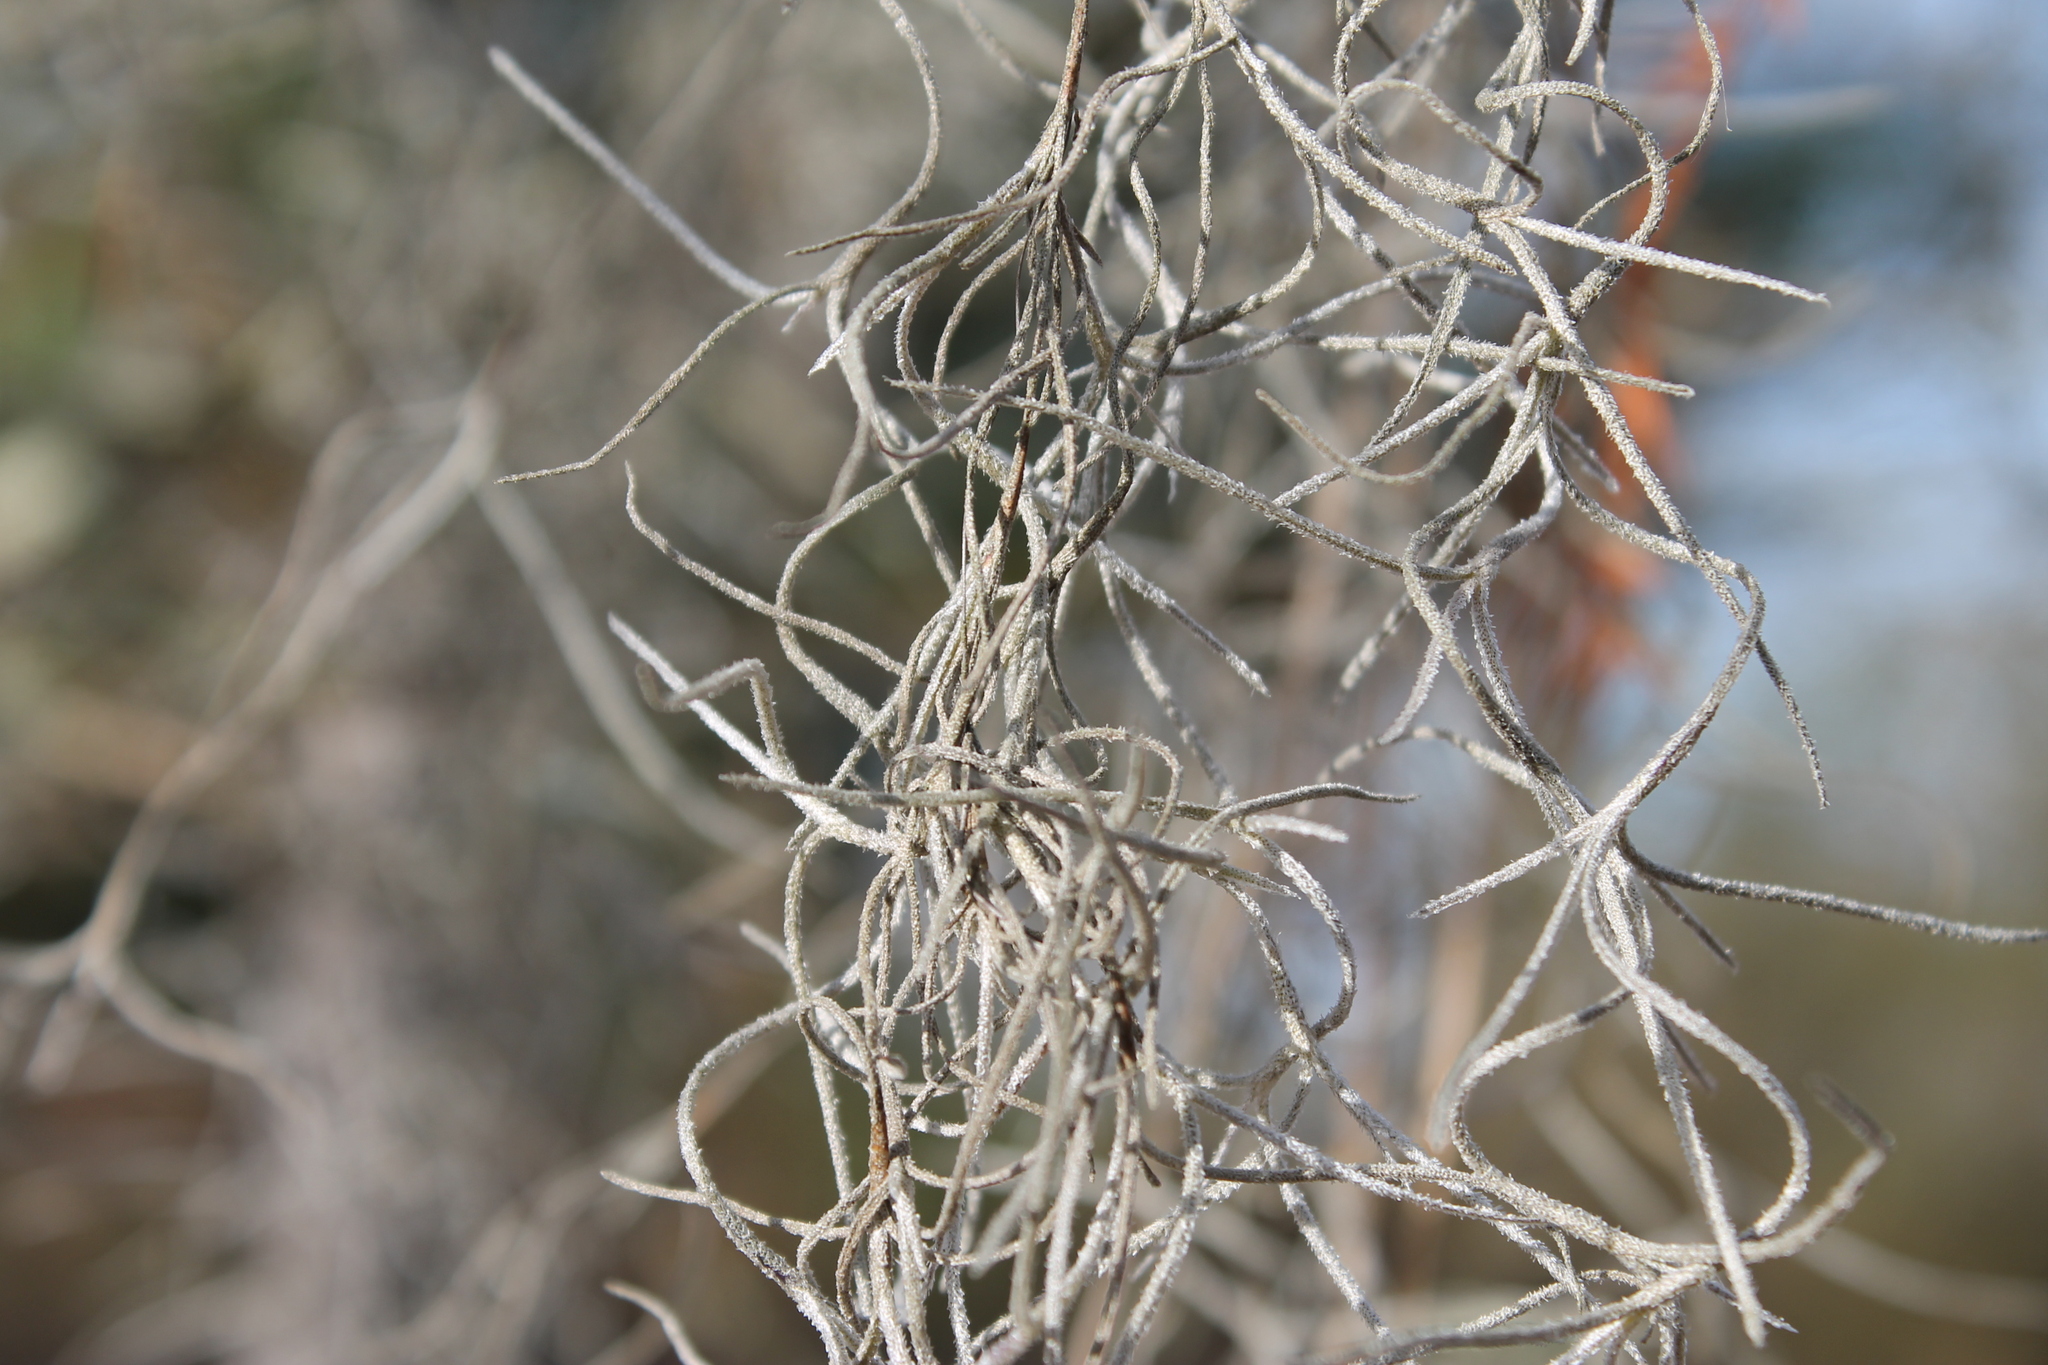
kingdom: Plantae
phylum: Tracheophyta
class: Liliopsida
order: Poales
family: Bromeliaceae
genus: Tillandsia
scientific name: Tillandsia usneoides
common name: Spanish moss
